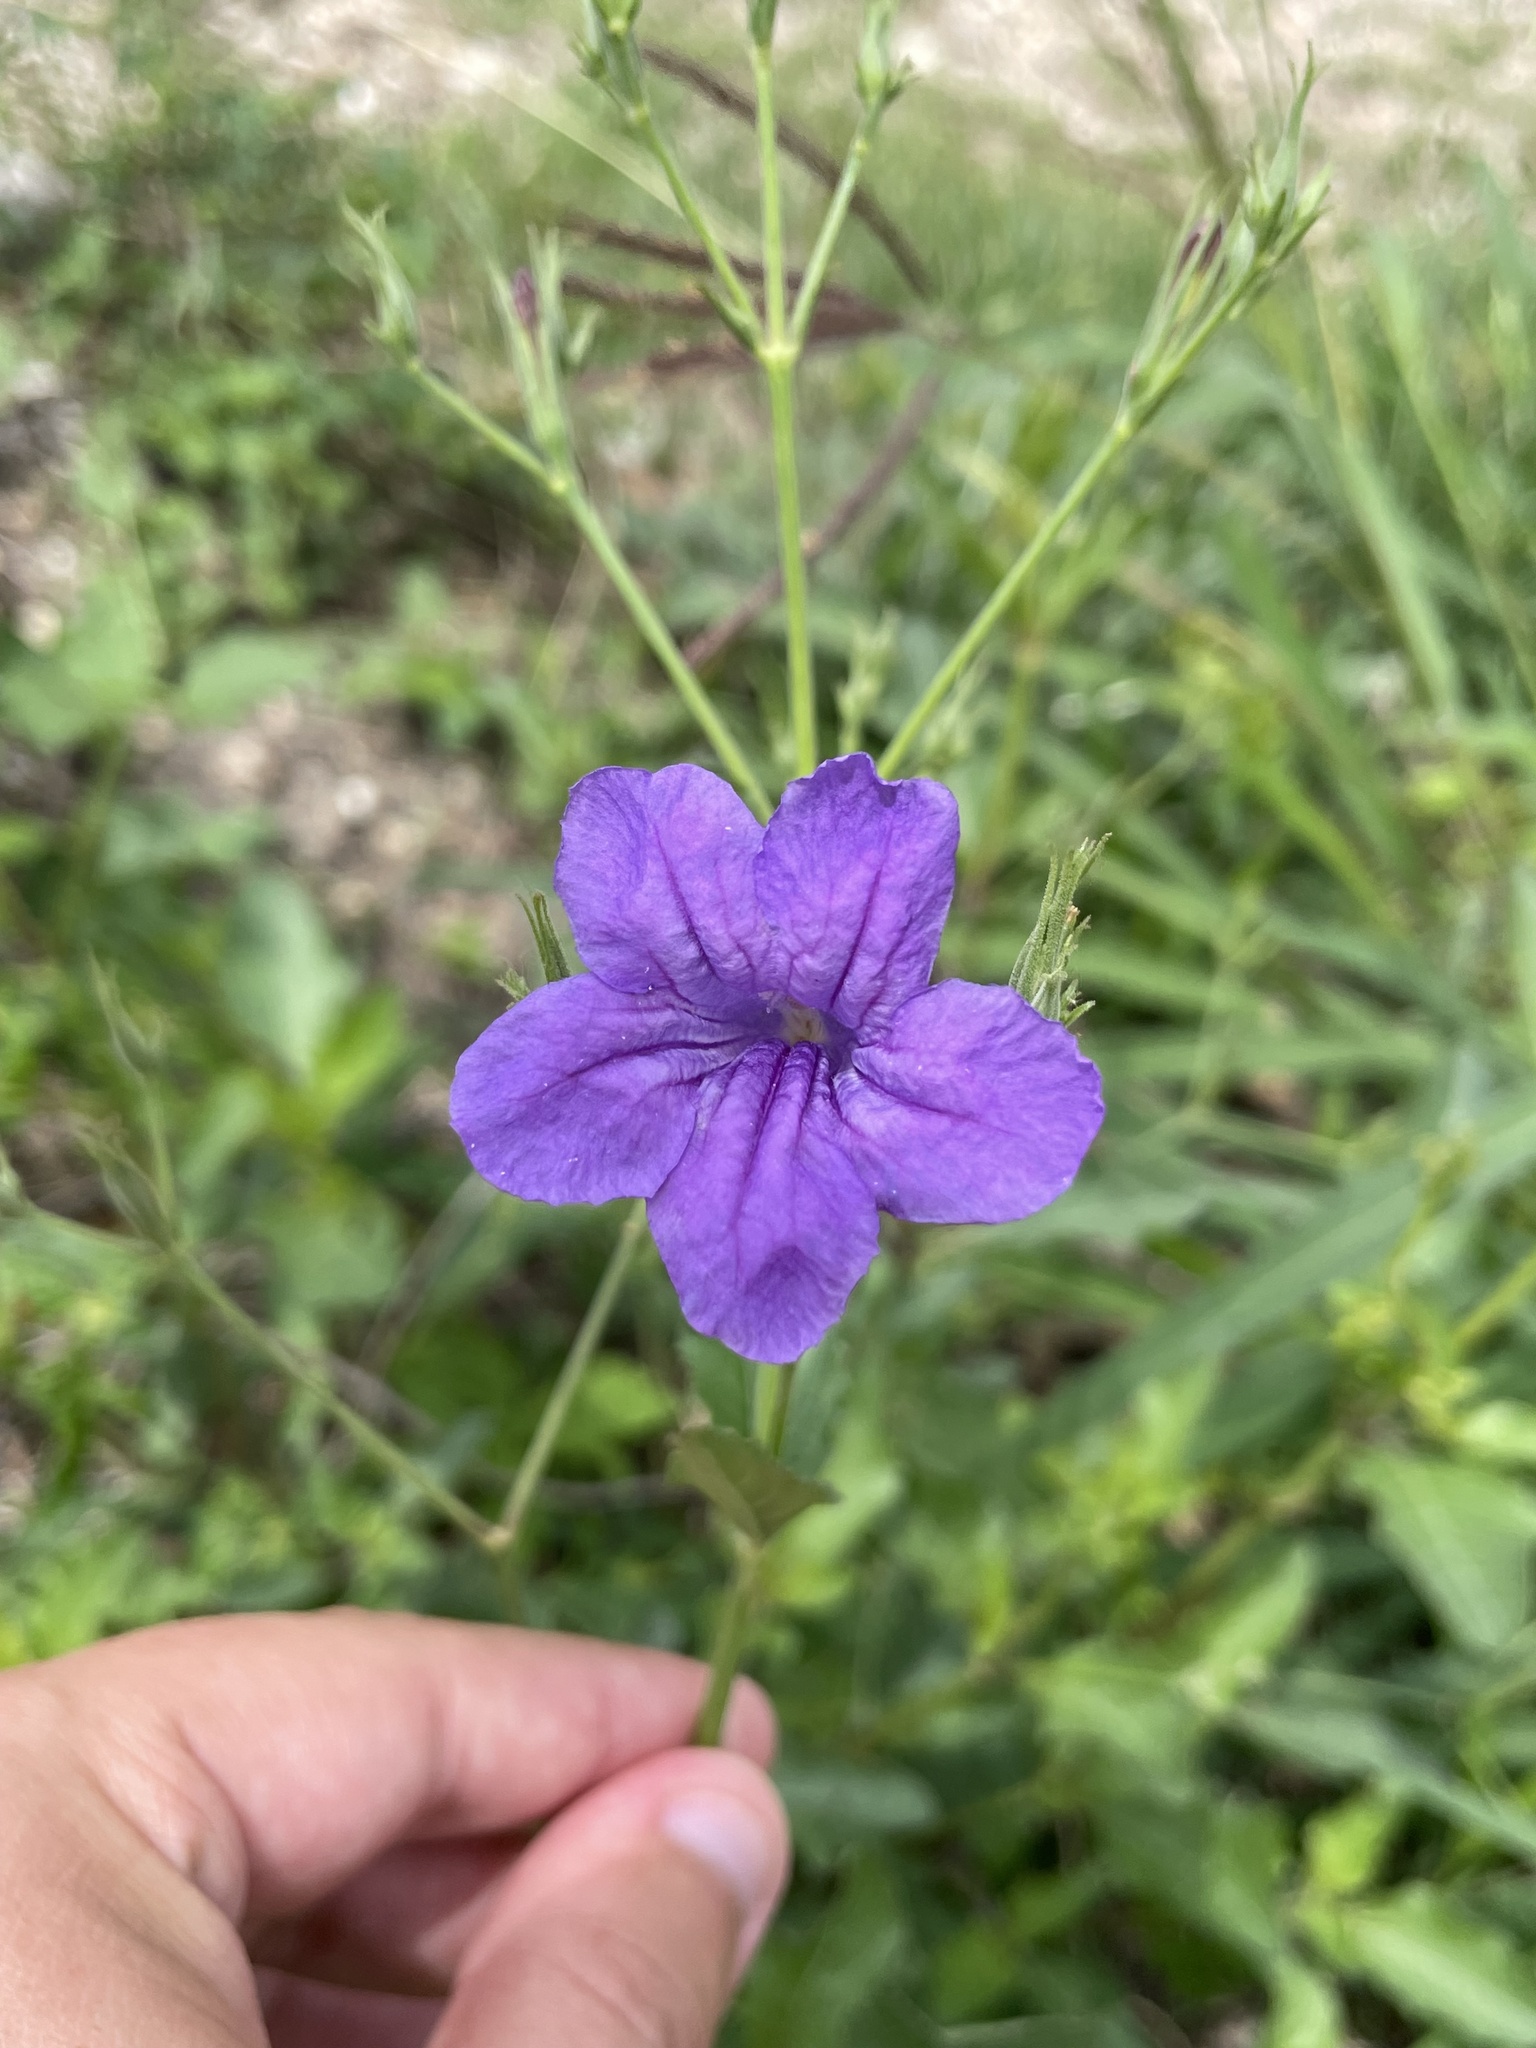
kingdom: Plantae
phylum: Tracheophyta
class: Magnoliopsida
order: Lamiales
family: Acanthaceae
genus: Ruellia
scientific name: Ruellia ciliatiflora
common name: Hairyflower wild petunia
